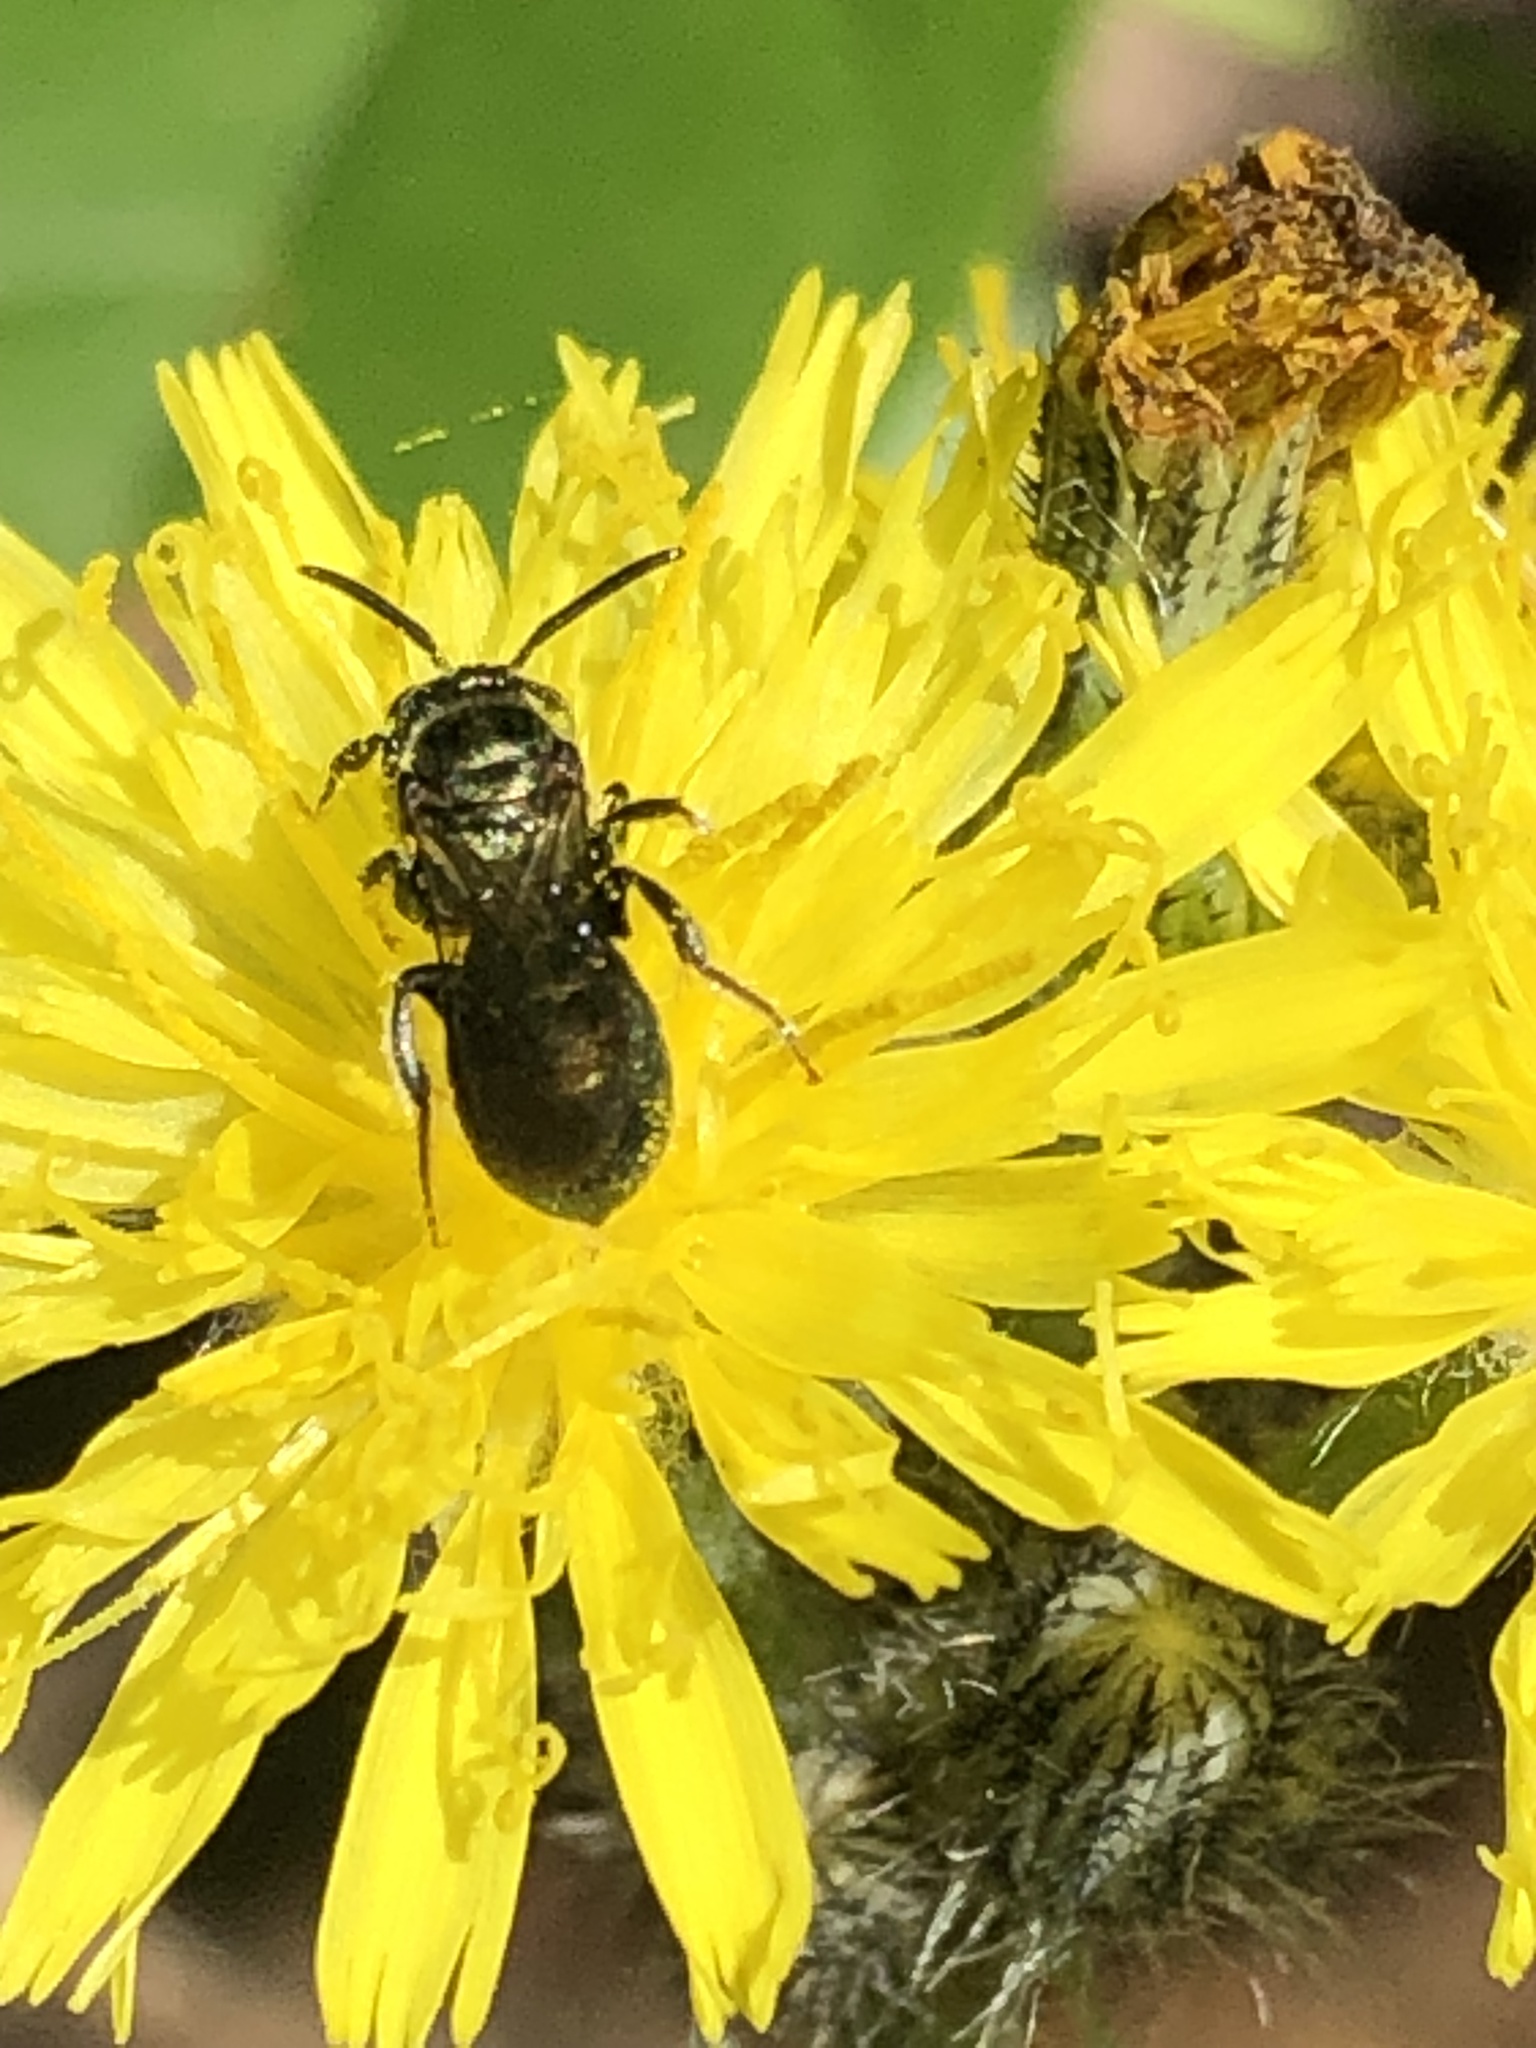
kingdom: Animalia
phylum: Arthropoda
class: Insecta
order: Hymenoptera
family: Apidae
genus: Zadontomerus
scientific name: Zadontomerus
